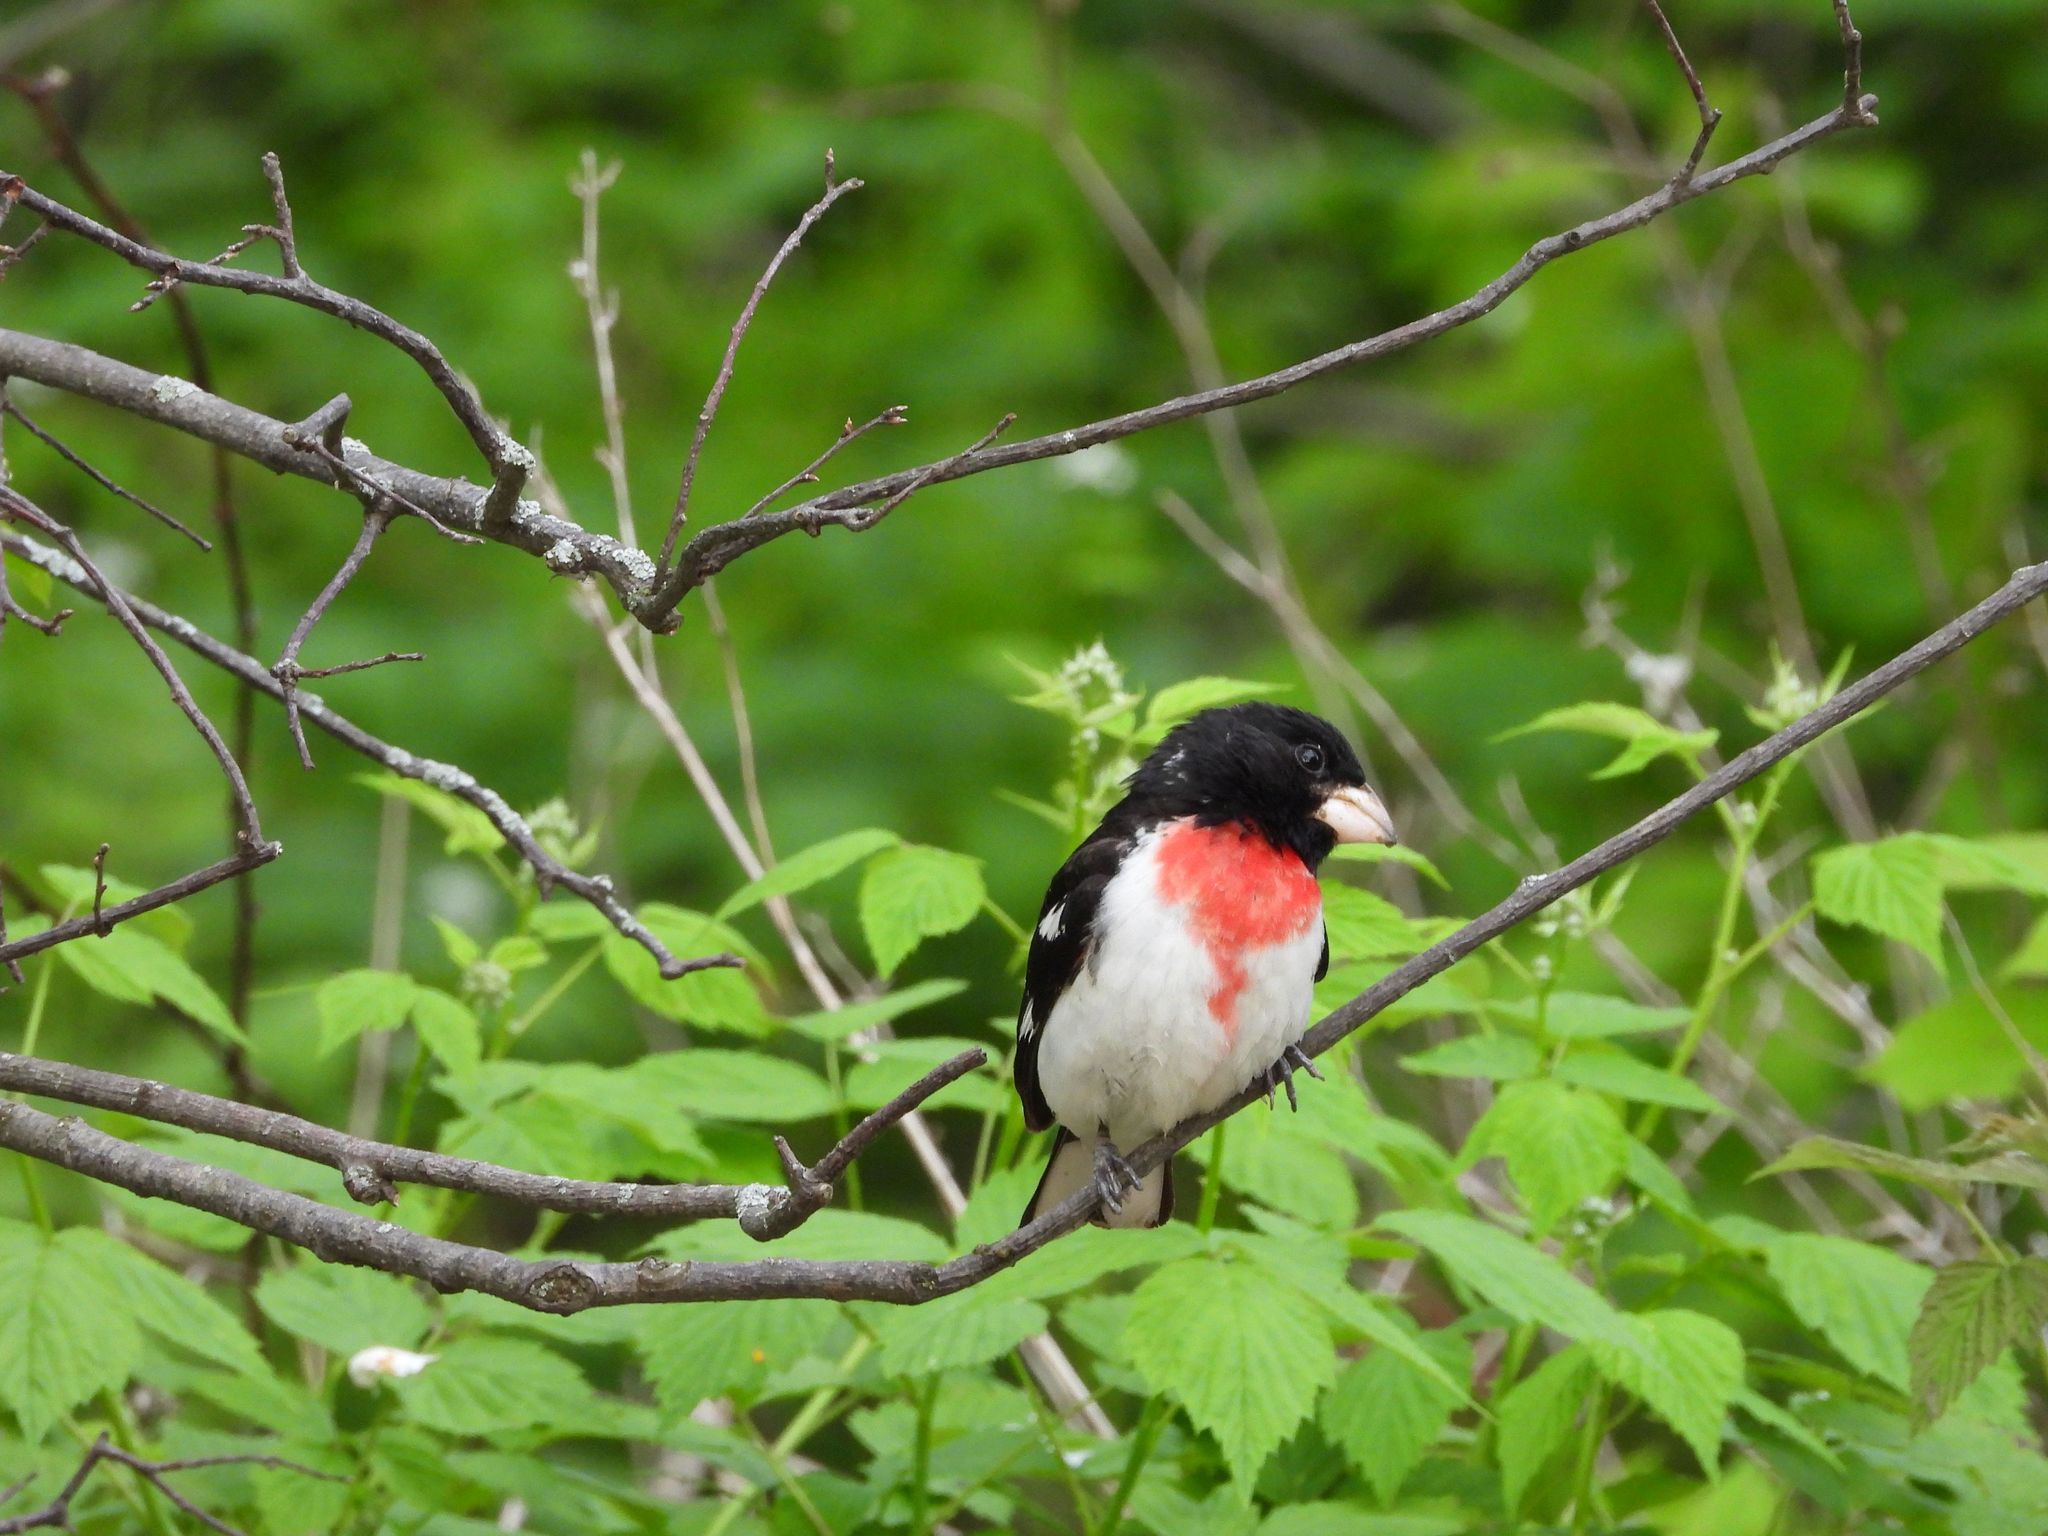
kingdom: Animalia
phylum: Chordata
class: Aves
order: Passeriformes
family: Cardinalidae
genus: Pheucticus
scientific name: Pheucticus ludovicianus
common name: Rose-breasted grosbeak
